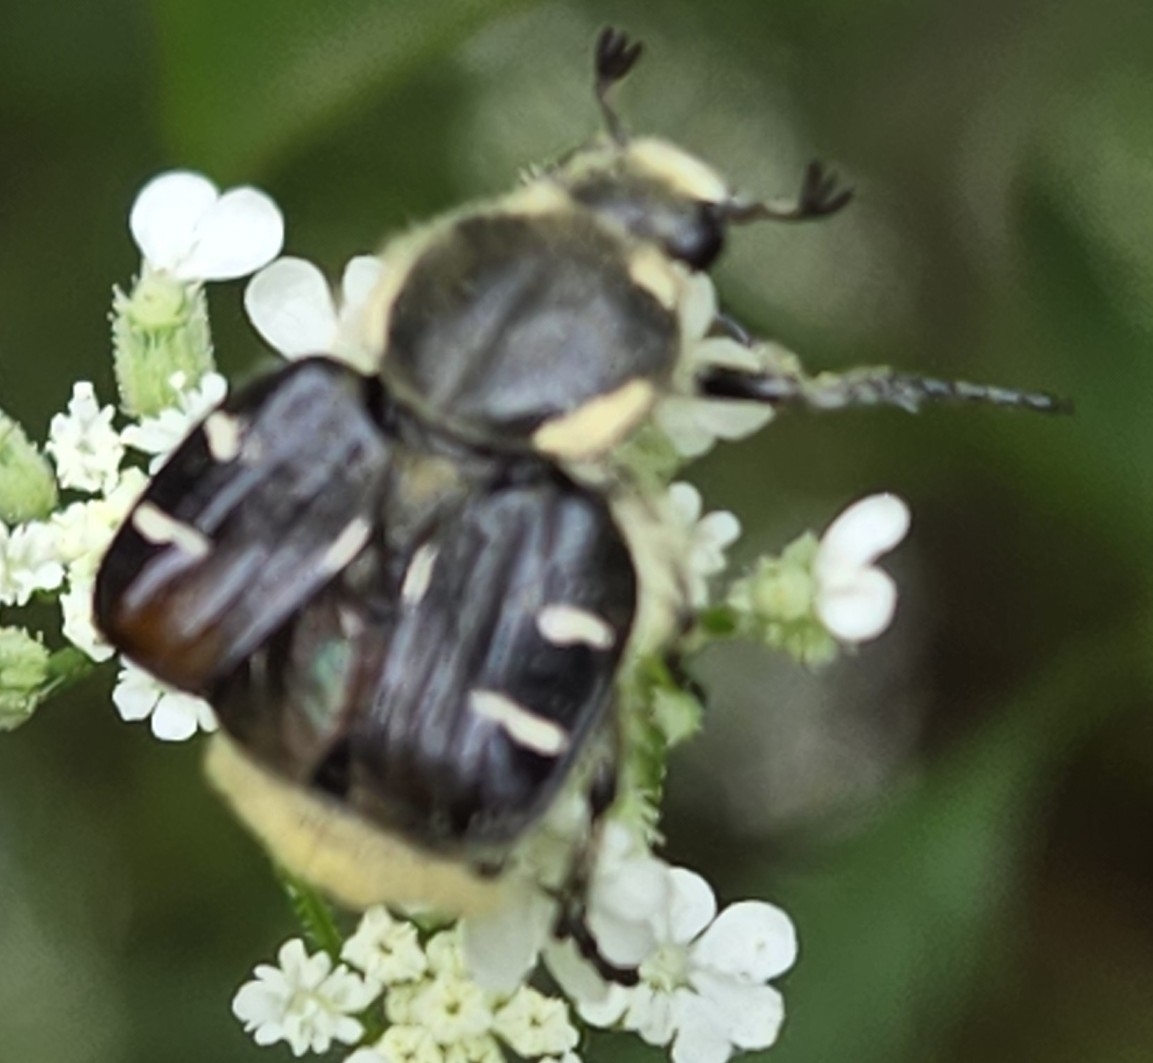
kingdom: Animalia
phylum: Arthropoda
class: Insecta
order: Coleoptera
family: Scarabaeidae
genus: Trichiotinus
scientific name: Trichiotinus texanus
